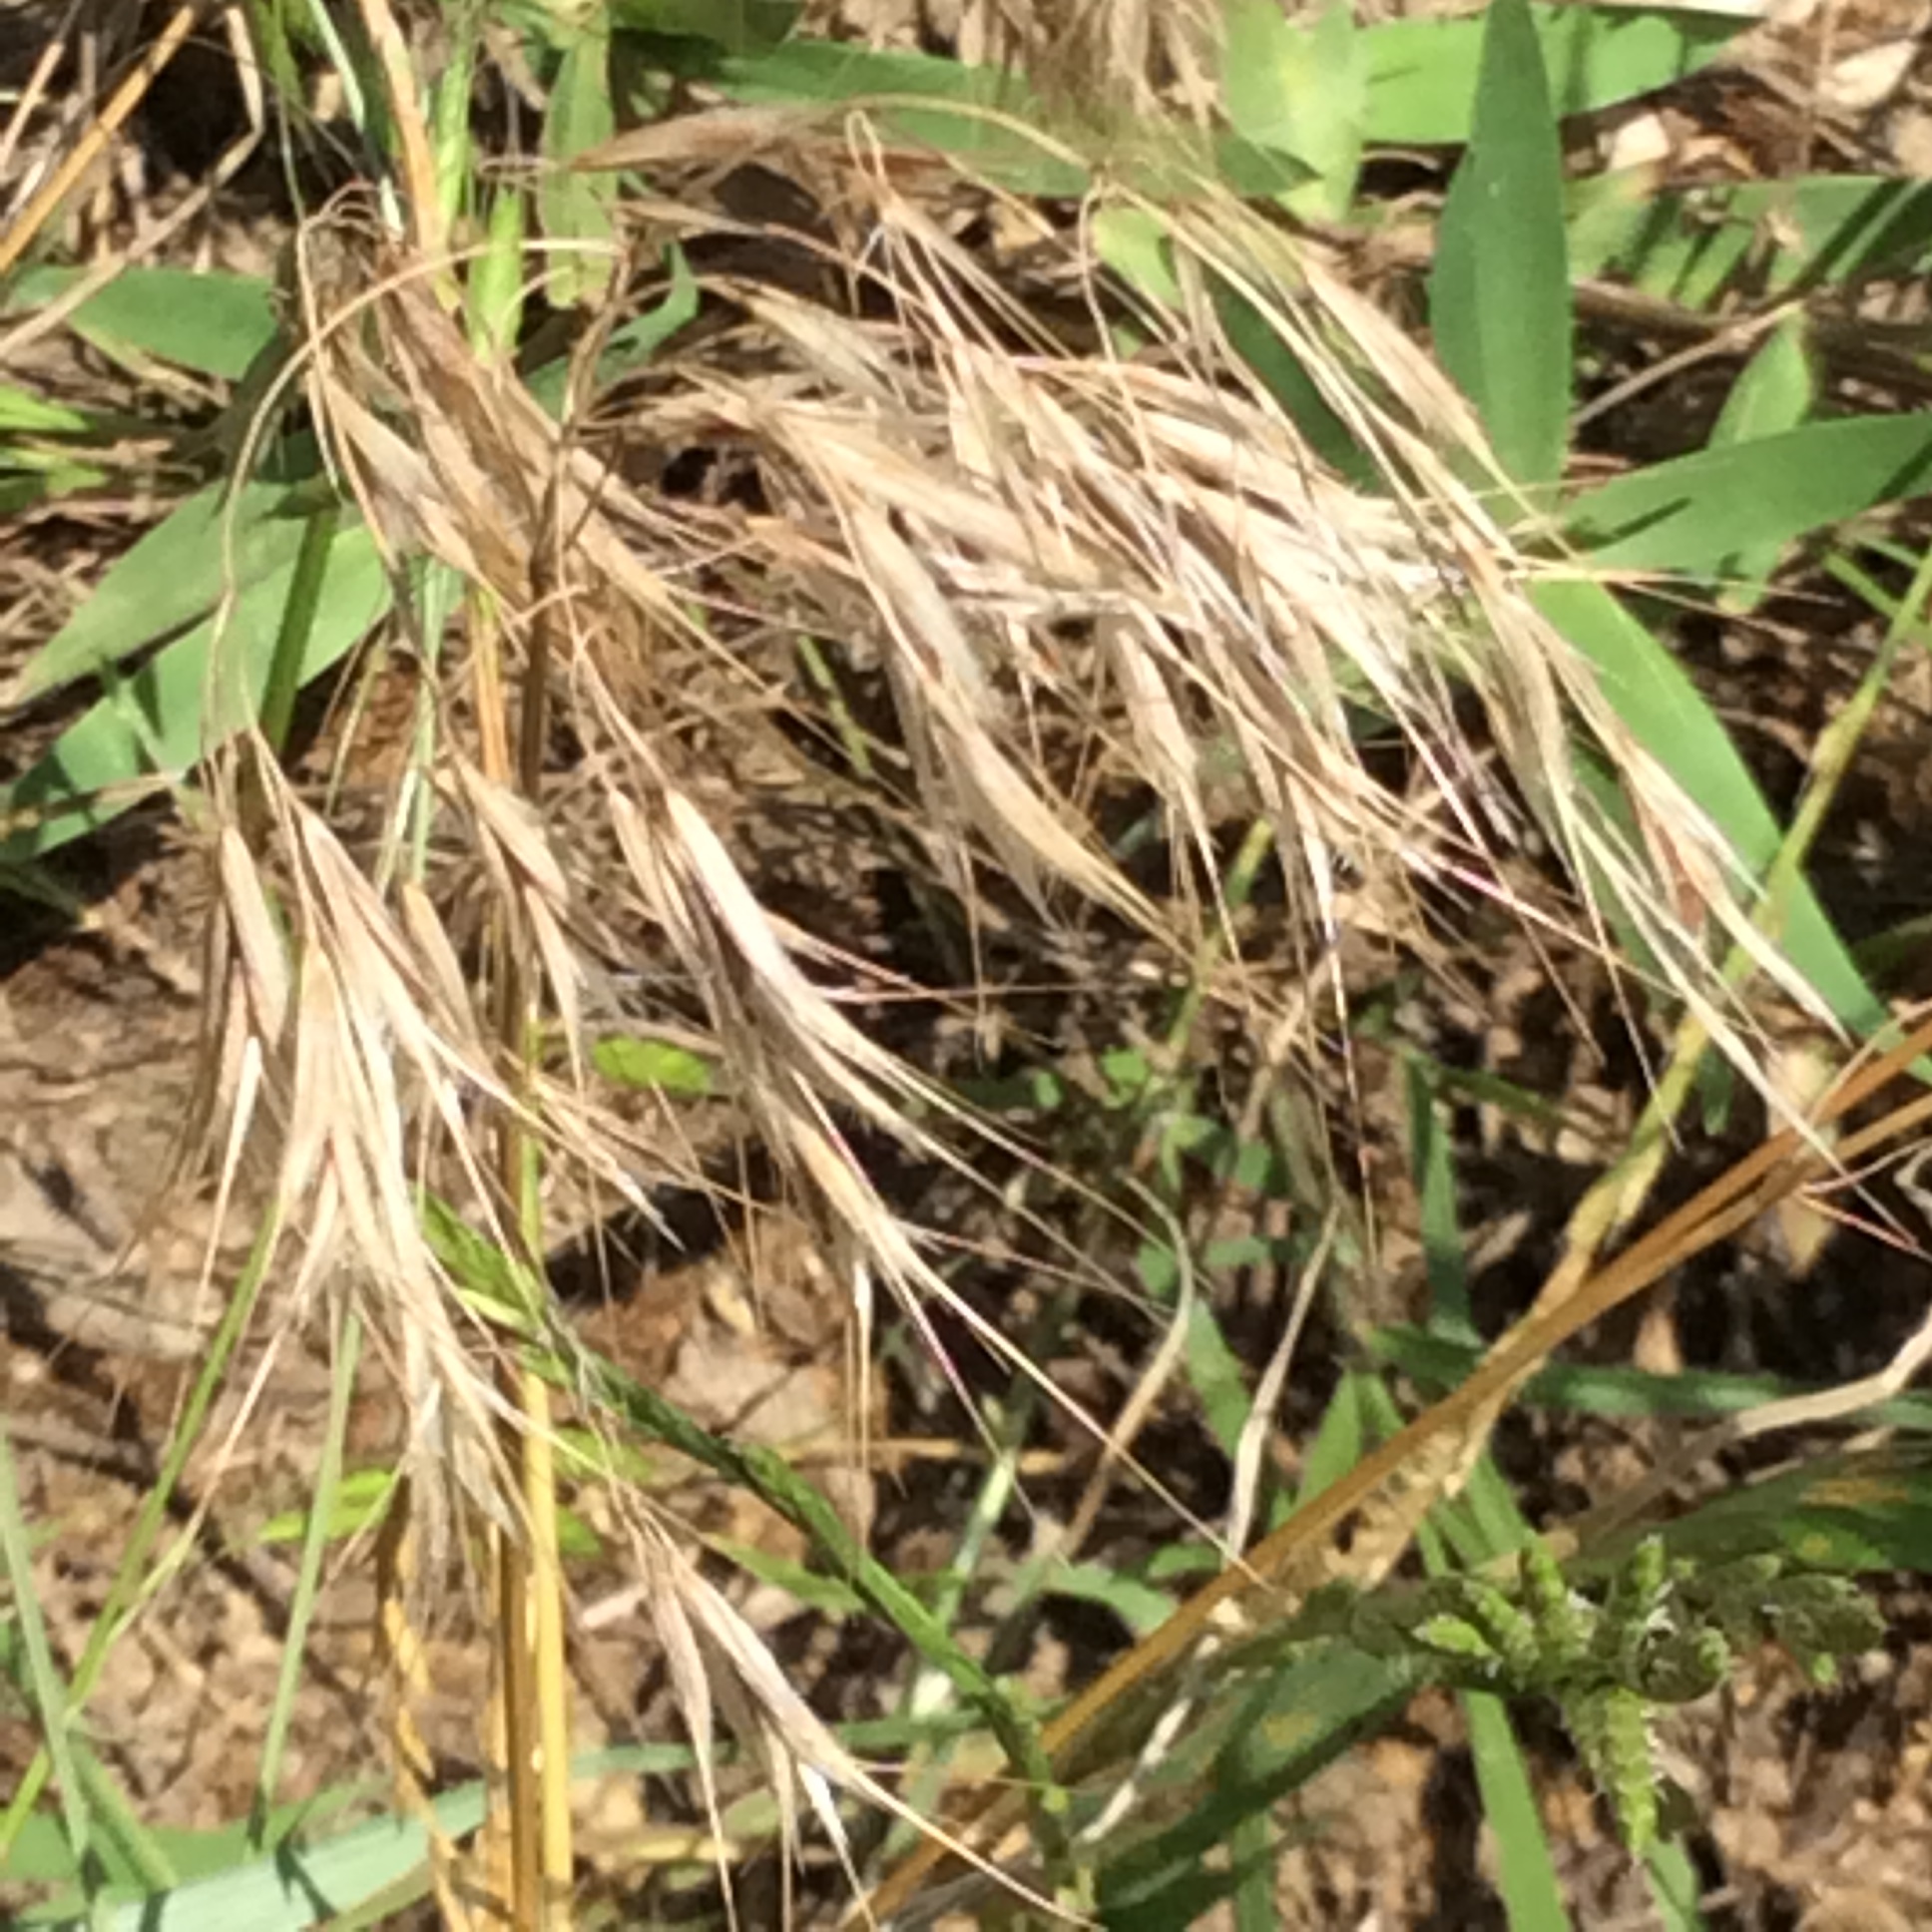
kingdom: Plantae
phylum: Tracheophyta
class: Liliopsida
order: Poales
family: Poaceae
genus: Bromus
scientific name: Bromus tectorum
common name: Cheatgrass
